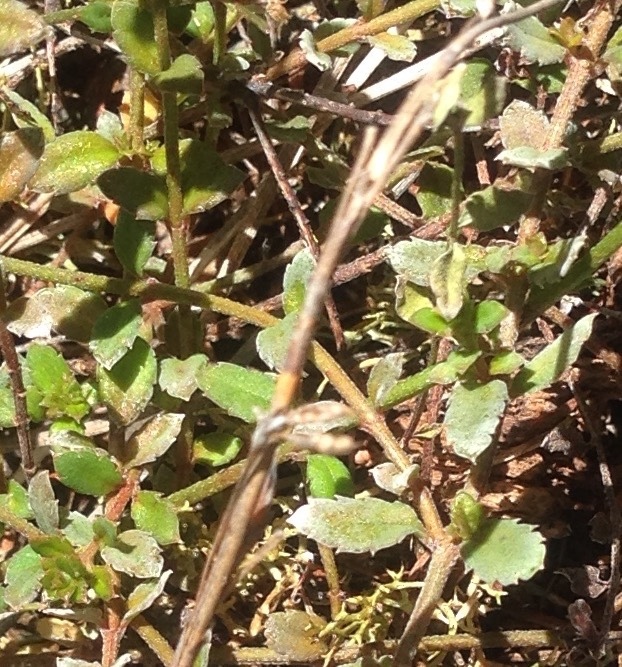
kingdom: Plantae
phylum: Tracheophyta
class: Magnoliopsida
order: Saxifragales
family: Haloragaceae
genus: Gonocarpus
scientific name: Gonocarpus incanus
